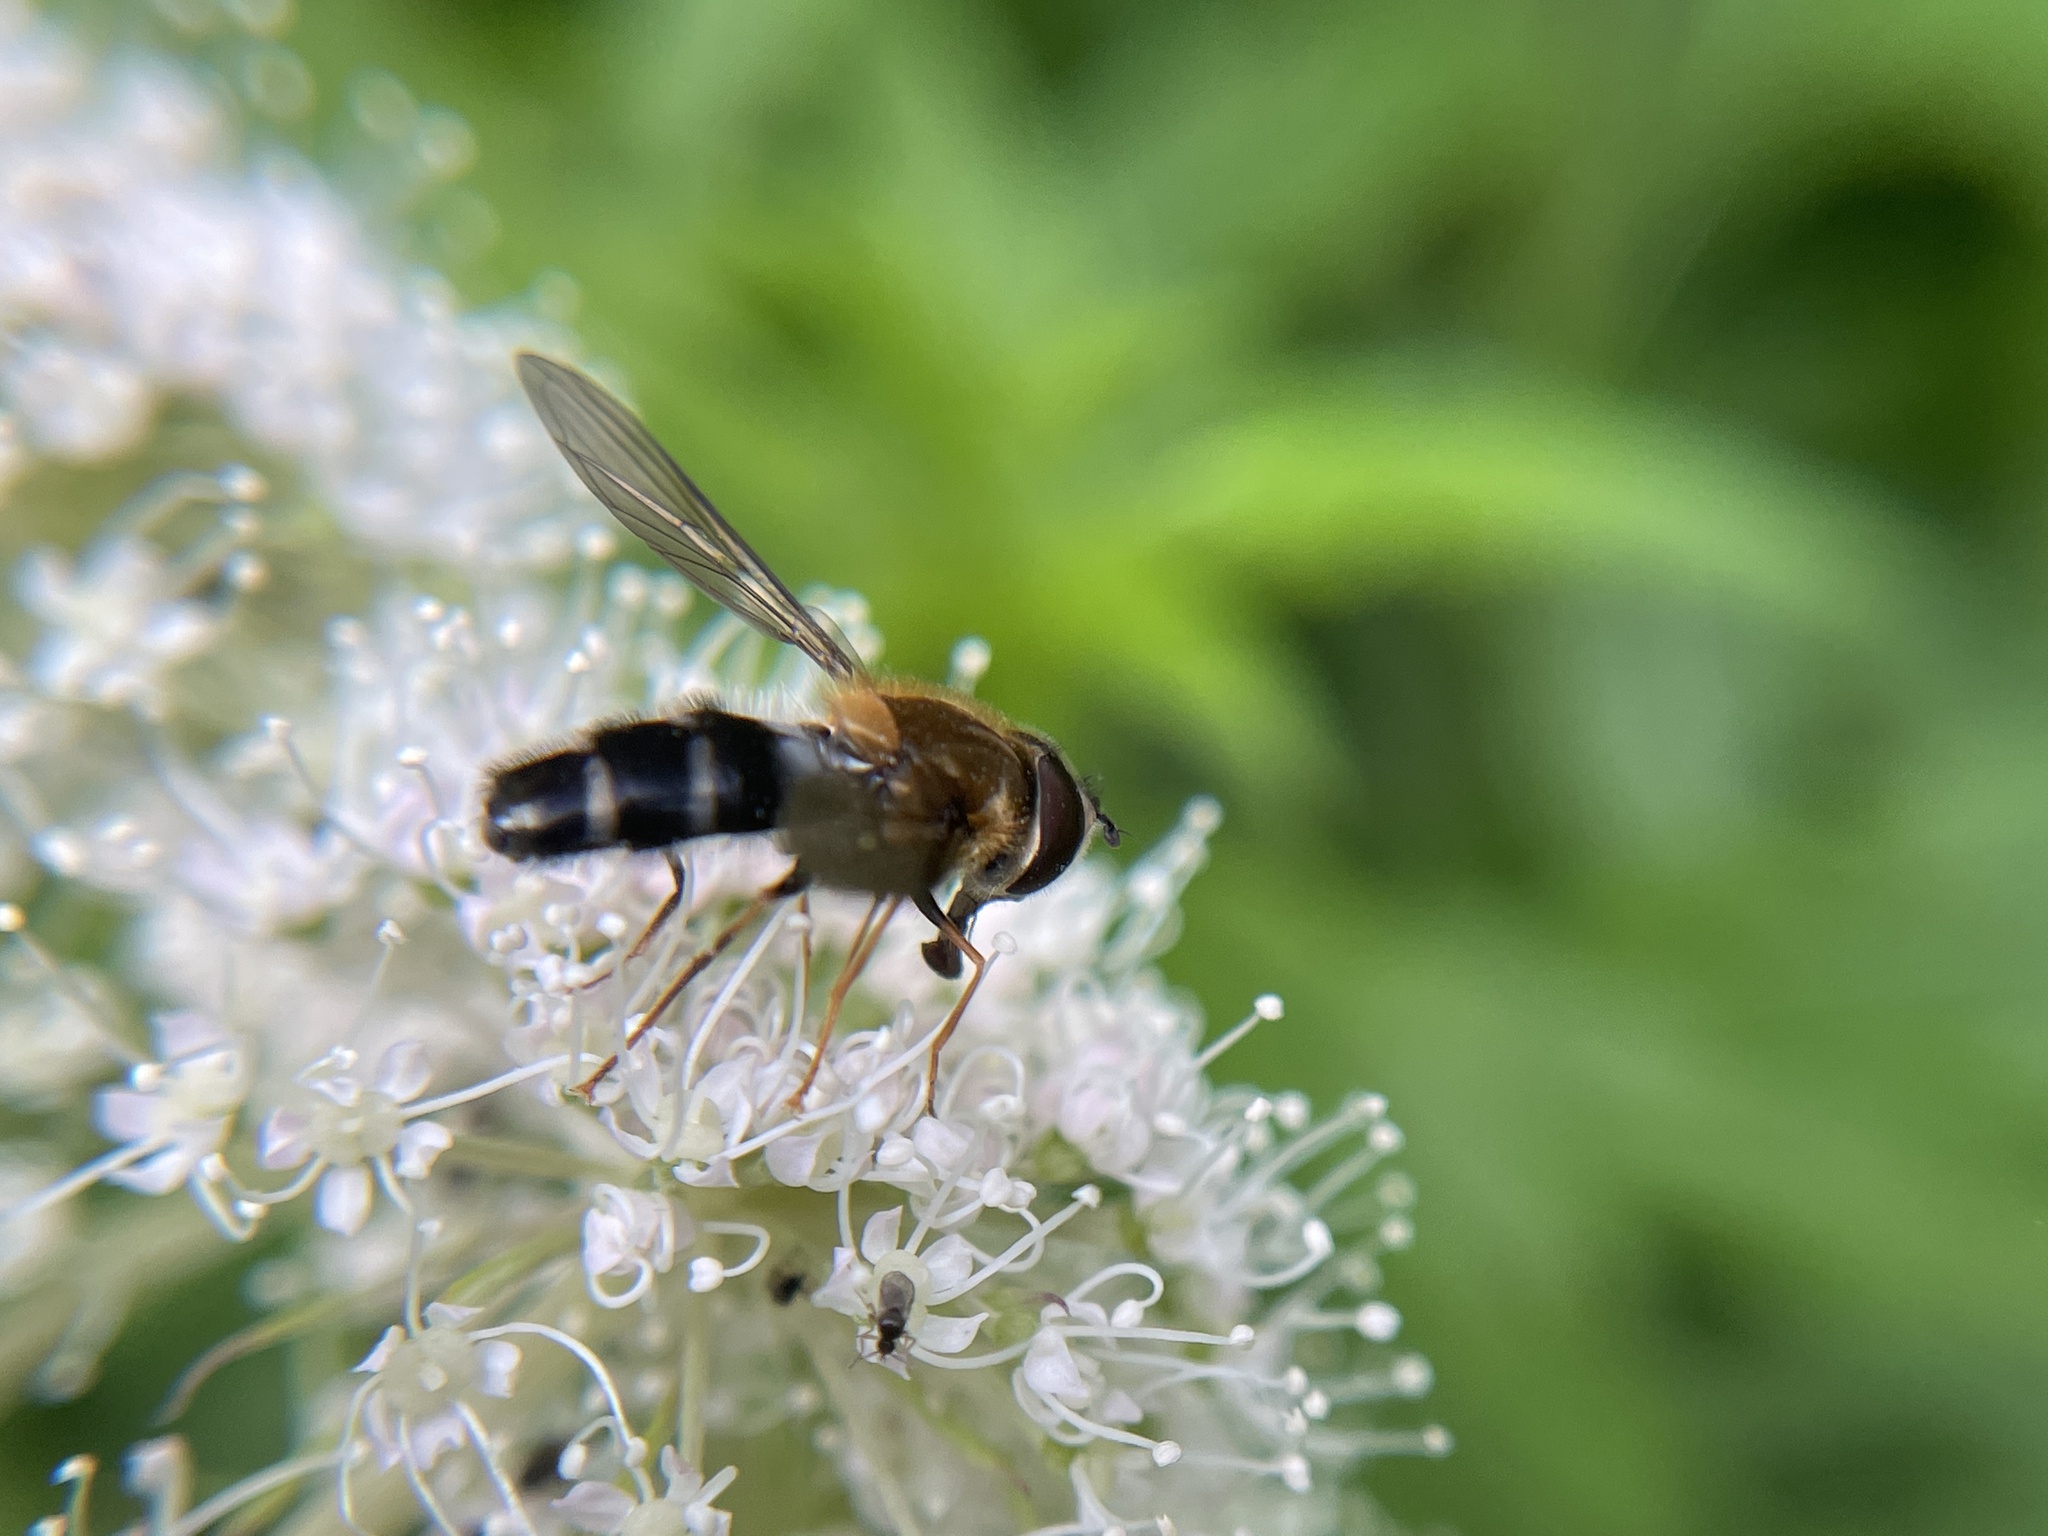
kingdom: Animalia
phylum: Arthropoda
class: Insecta
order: Diptera
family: Syrphidae
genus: Leucozona
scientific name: Leucozona glaucia
